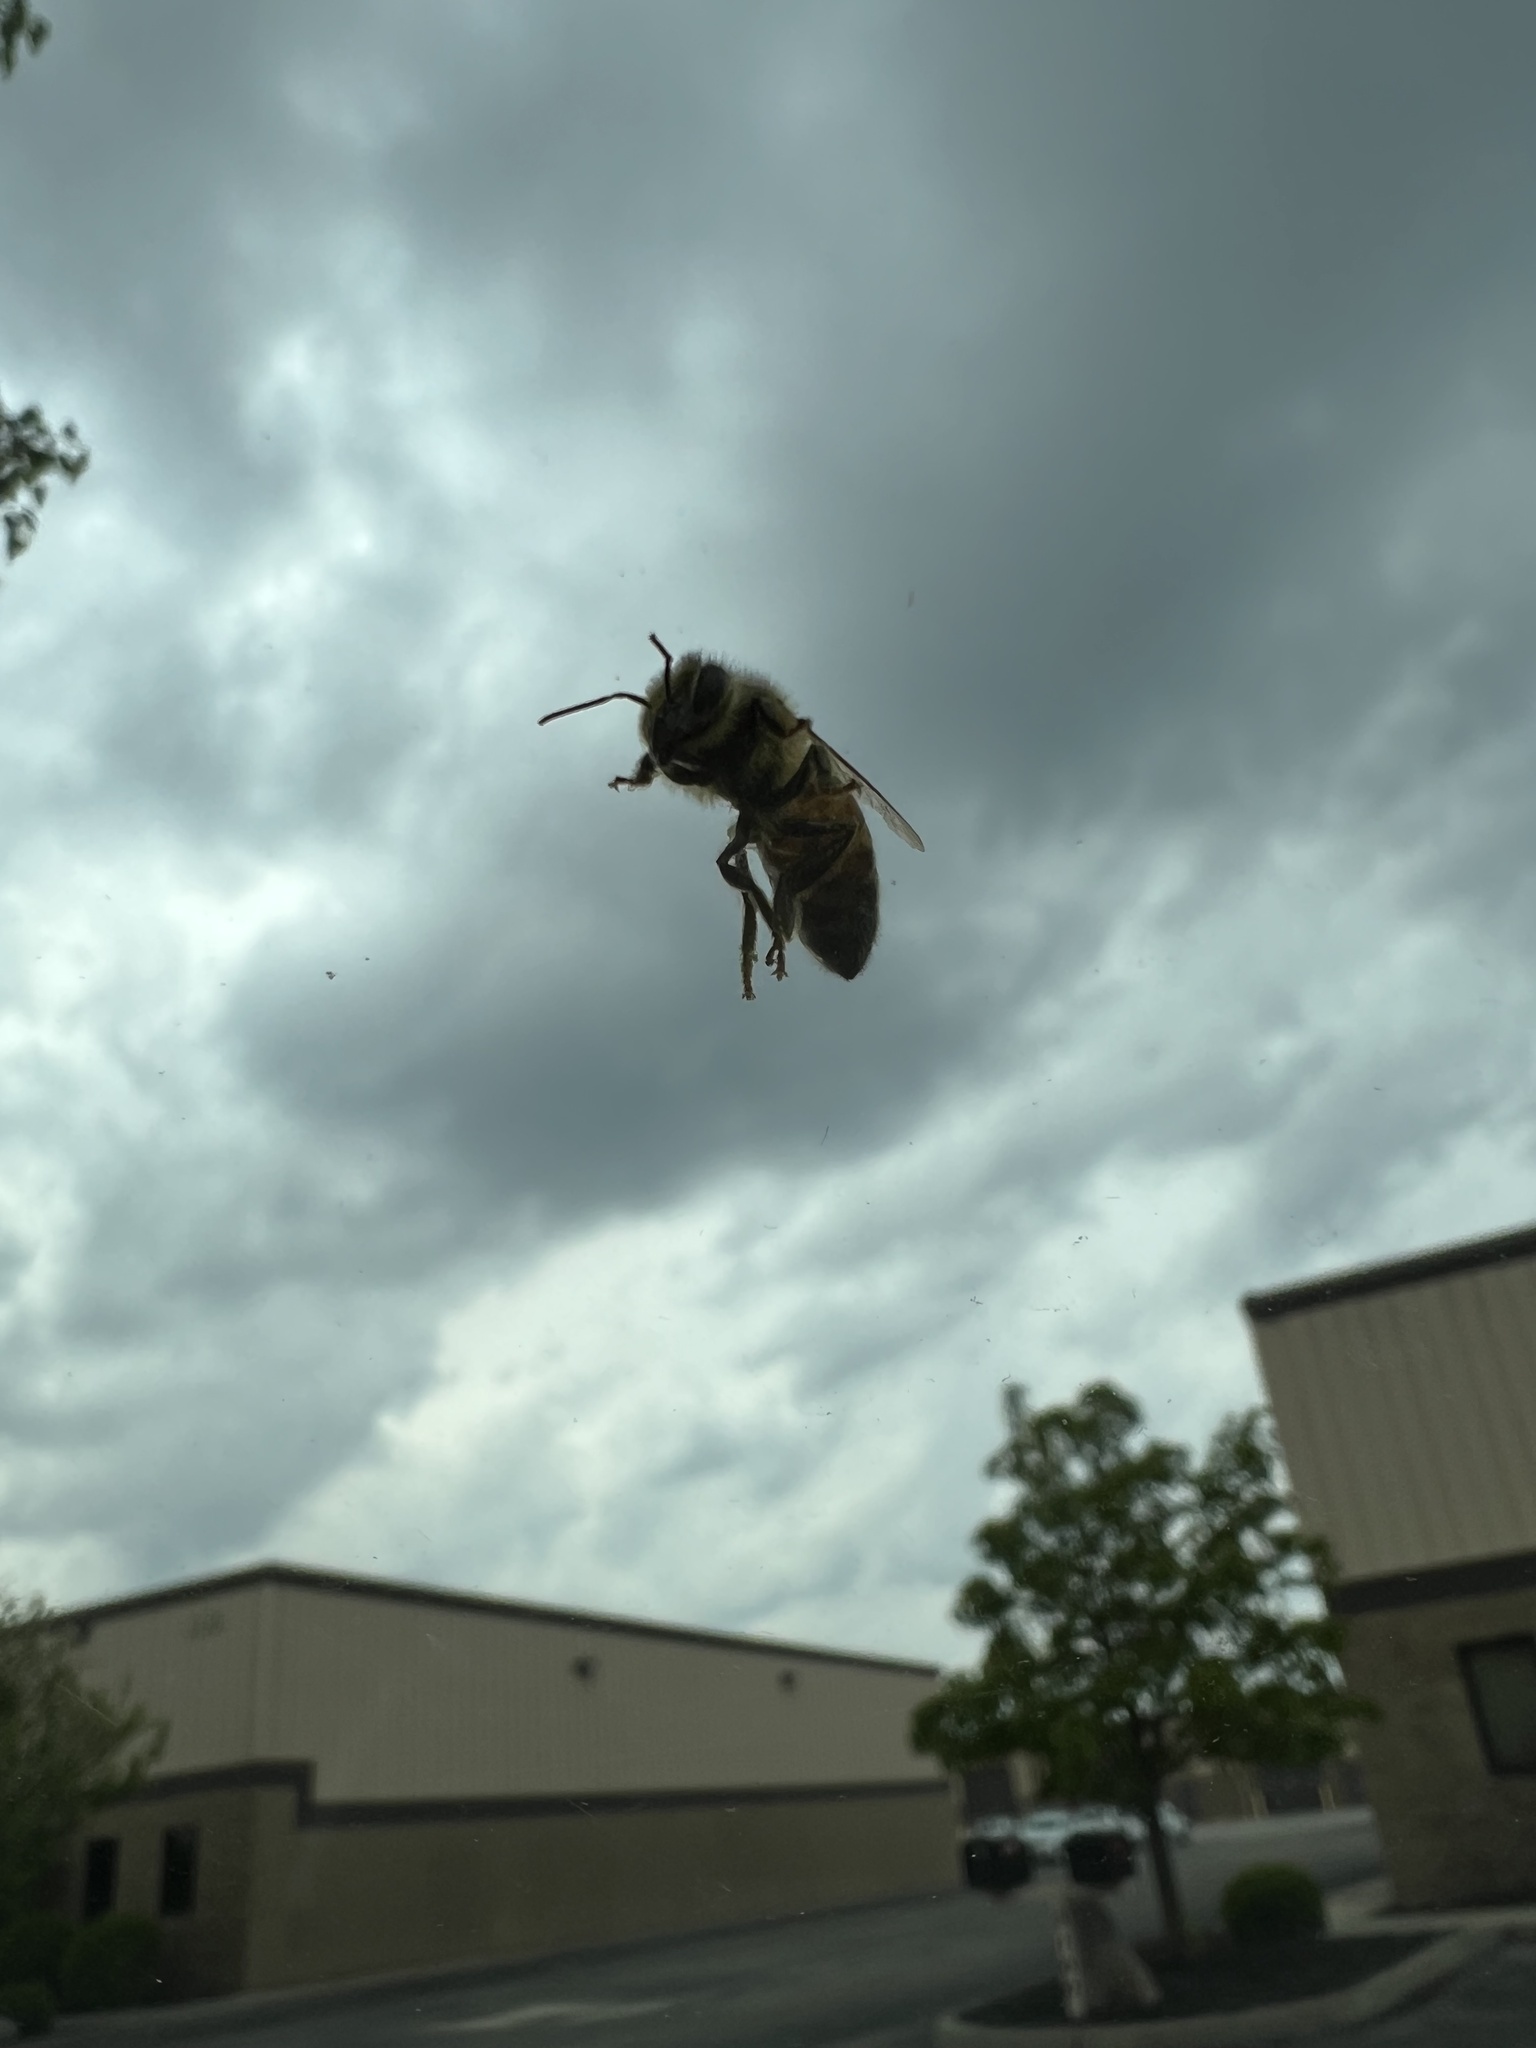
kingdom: Animalia
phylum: Arthropoda
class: Insecta
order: Hymenoptera
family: Apidae
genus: Apis
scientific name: Apis mellifera
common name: Honey bee
